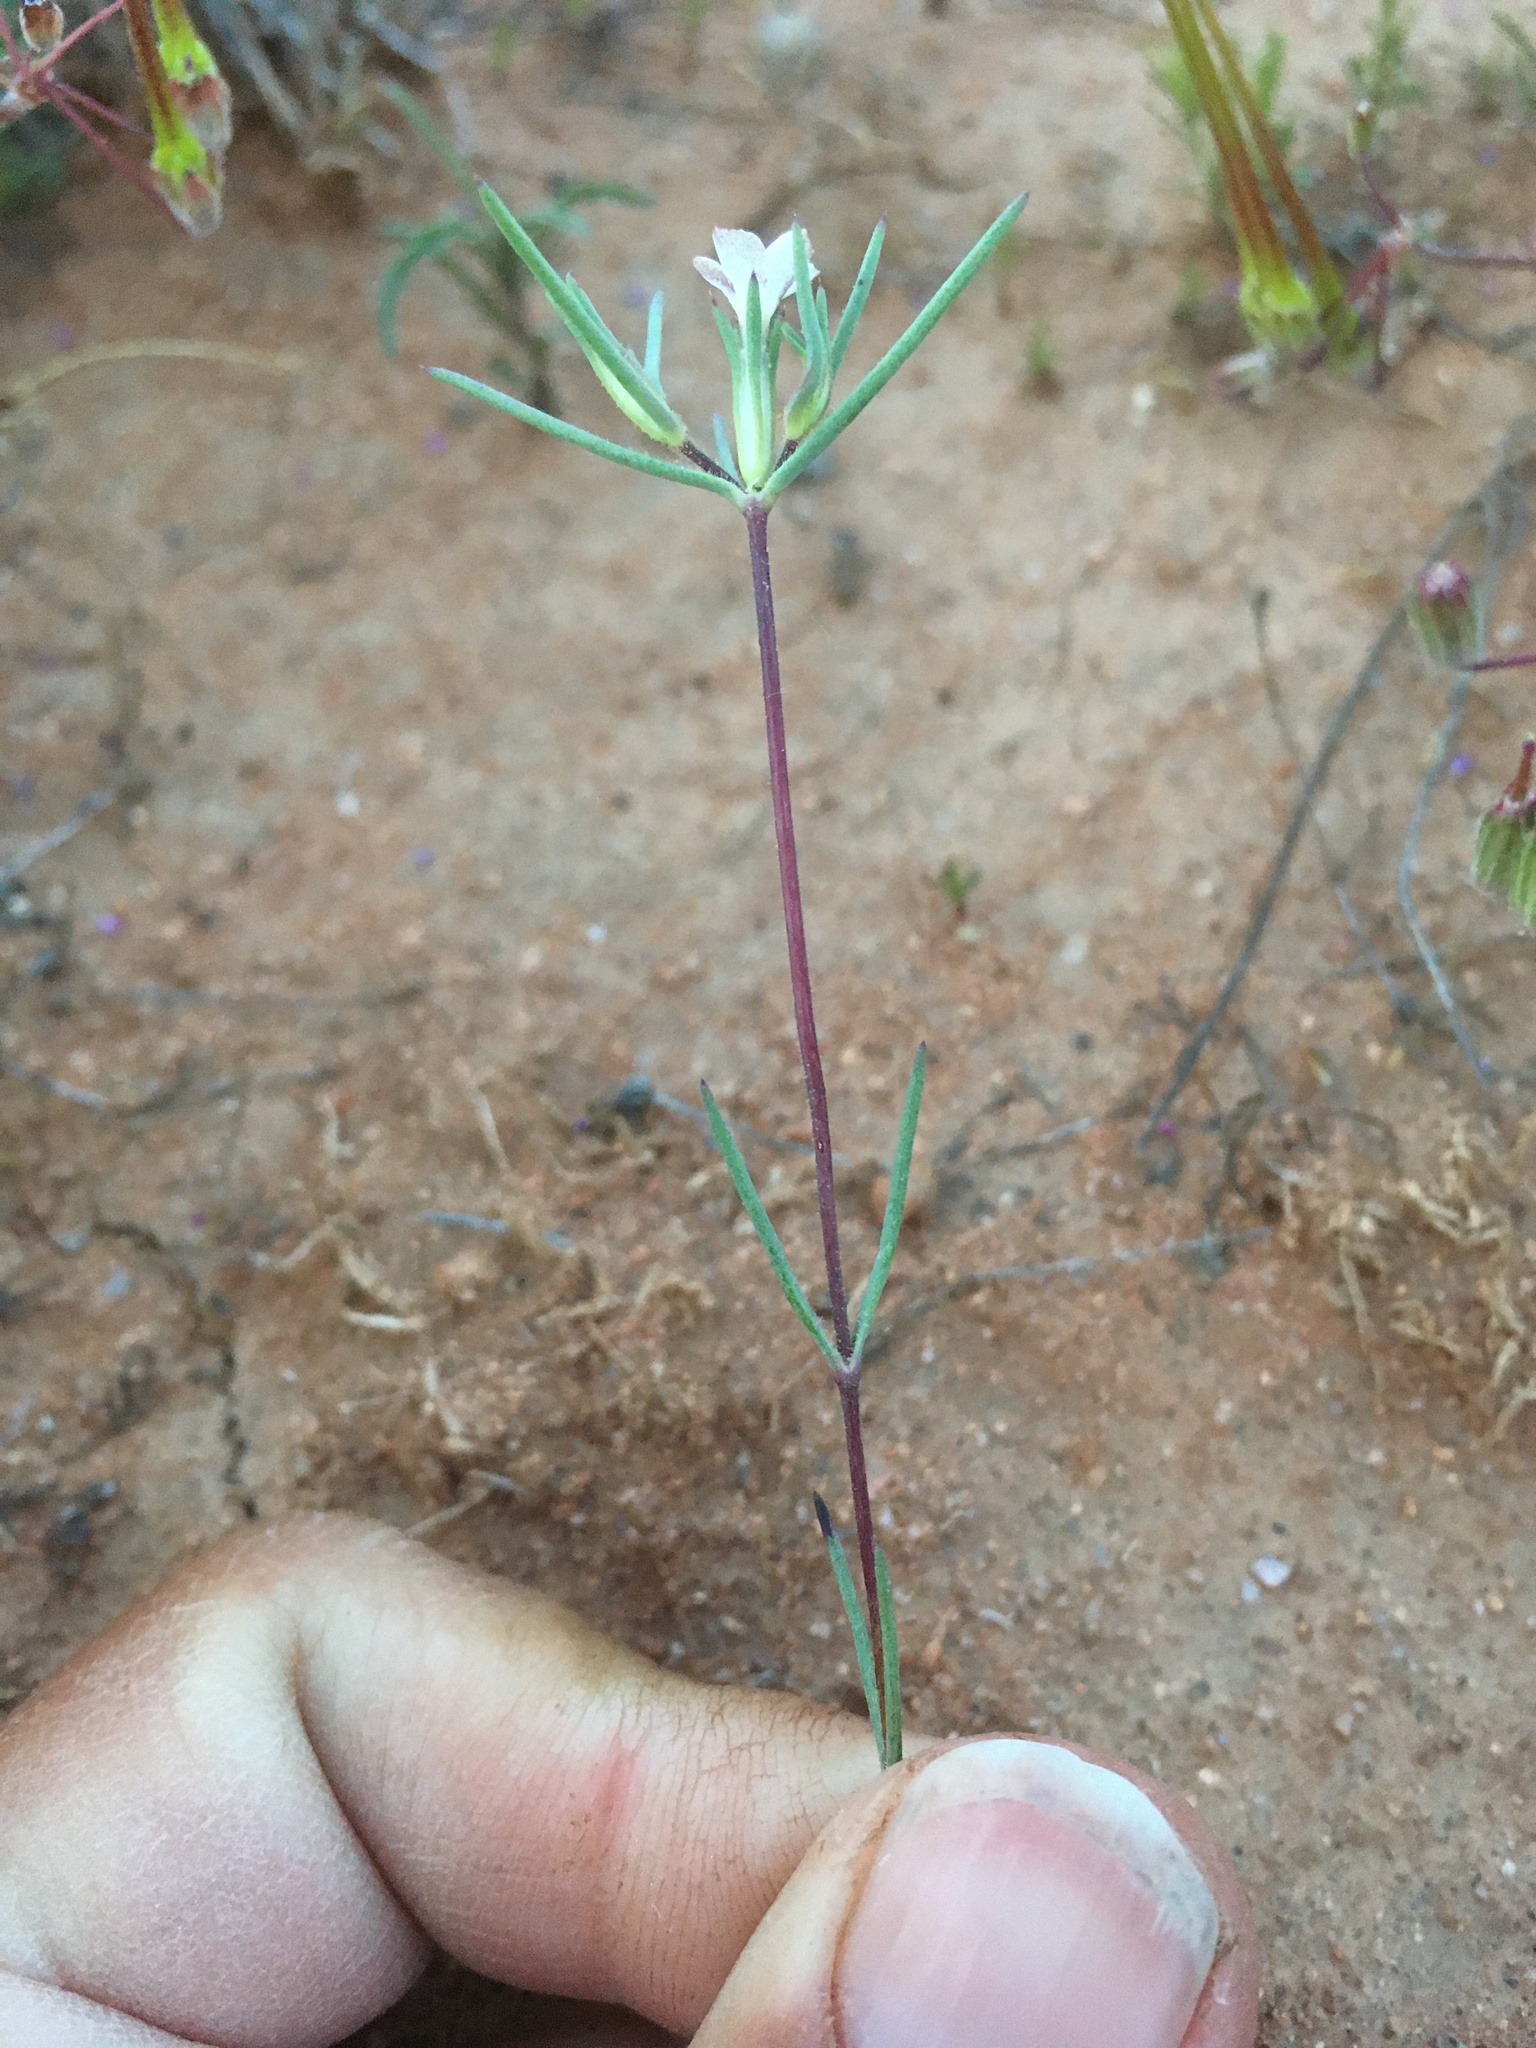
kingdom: Plantae
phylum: Tracheophyta
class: Magnoliopsida
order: Ericales
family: Polemoniaceae
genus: Linanthus
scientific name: Linanthus bigelovii
